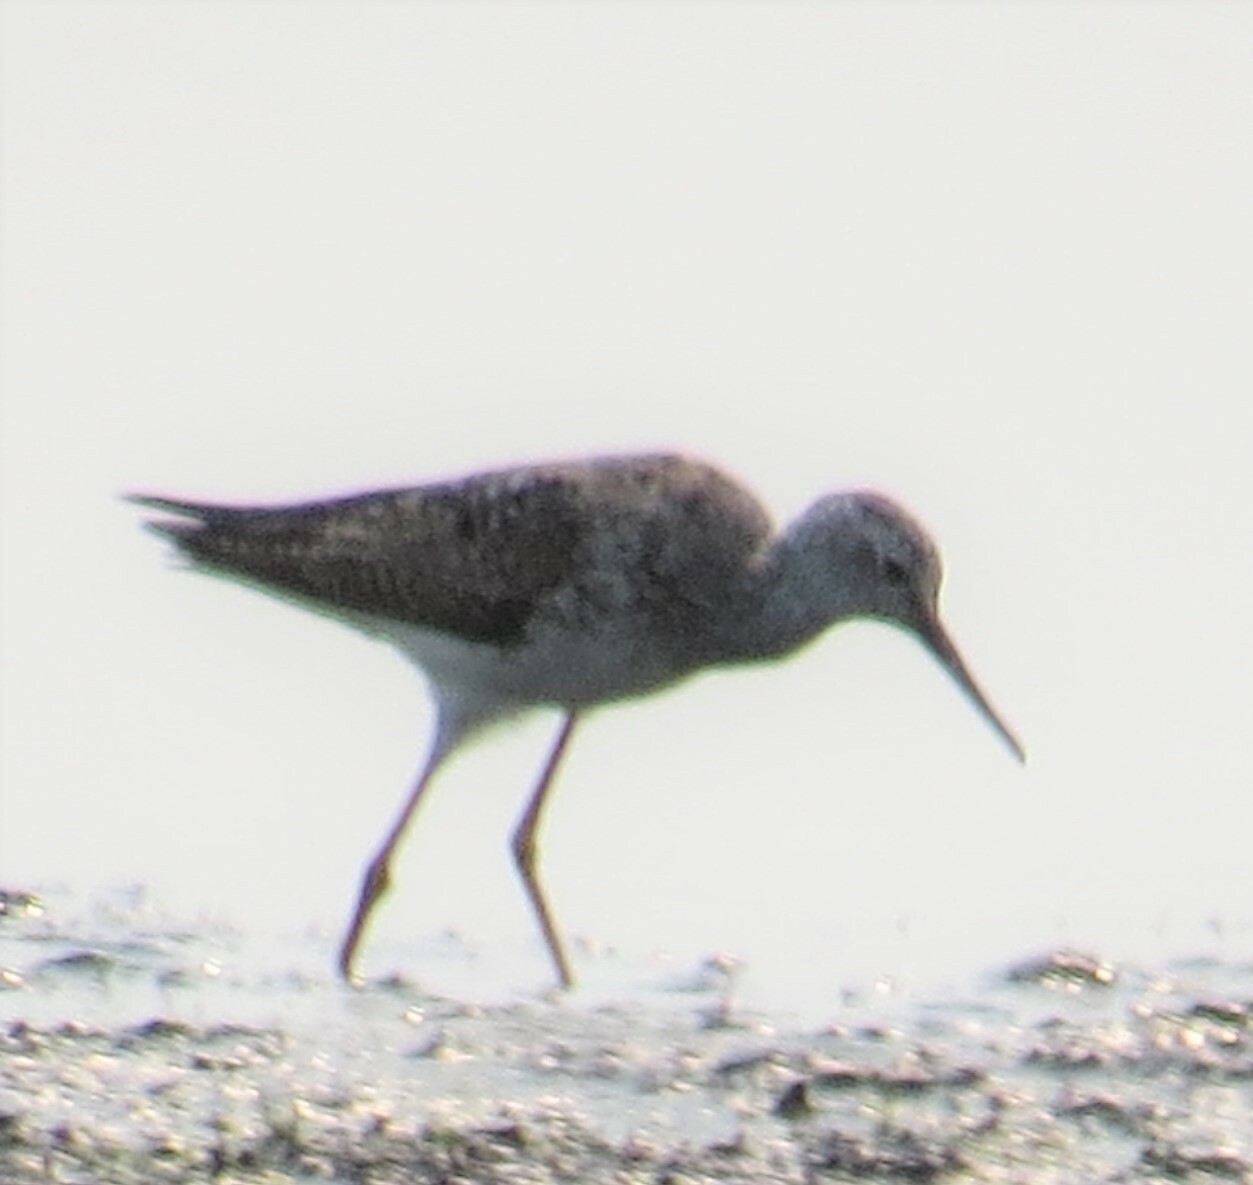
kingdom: Animalia
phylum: Chordata
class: Aves
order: Charadriiformes
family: Scolopacidae
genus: Tringa
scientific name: Tringa flavipes
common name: Lesser yellowlegs
